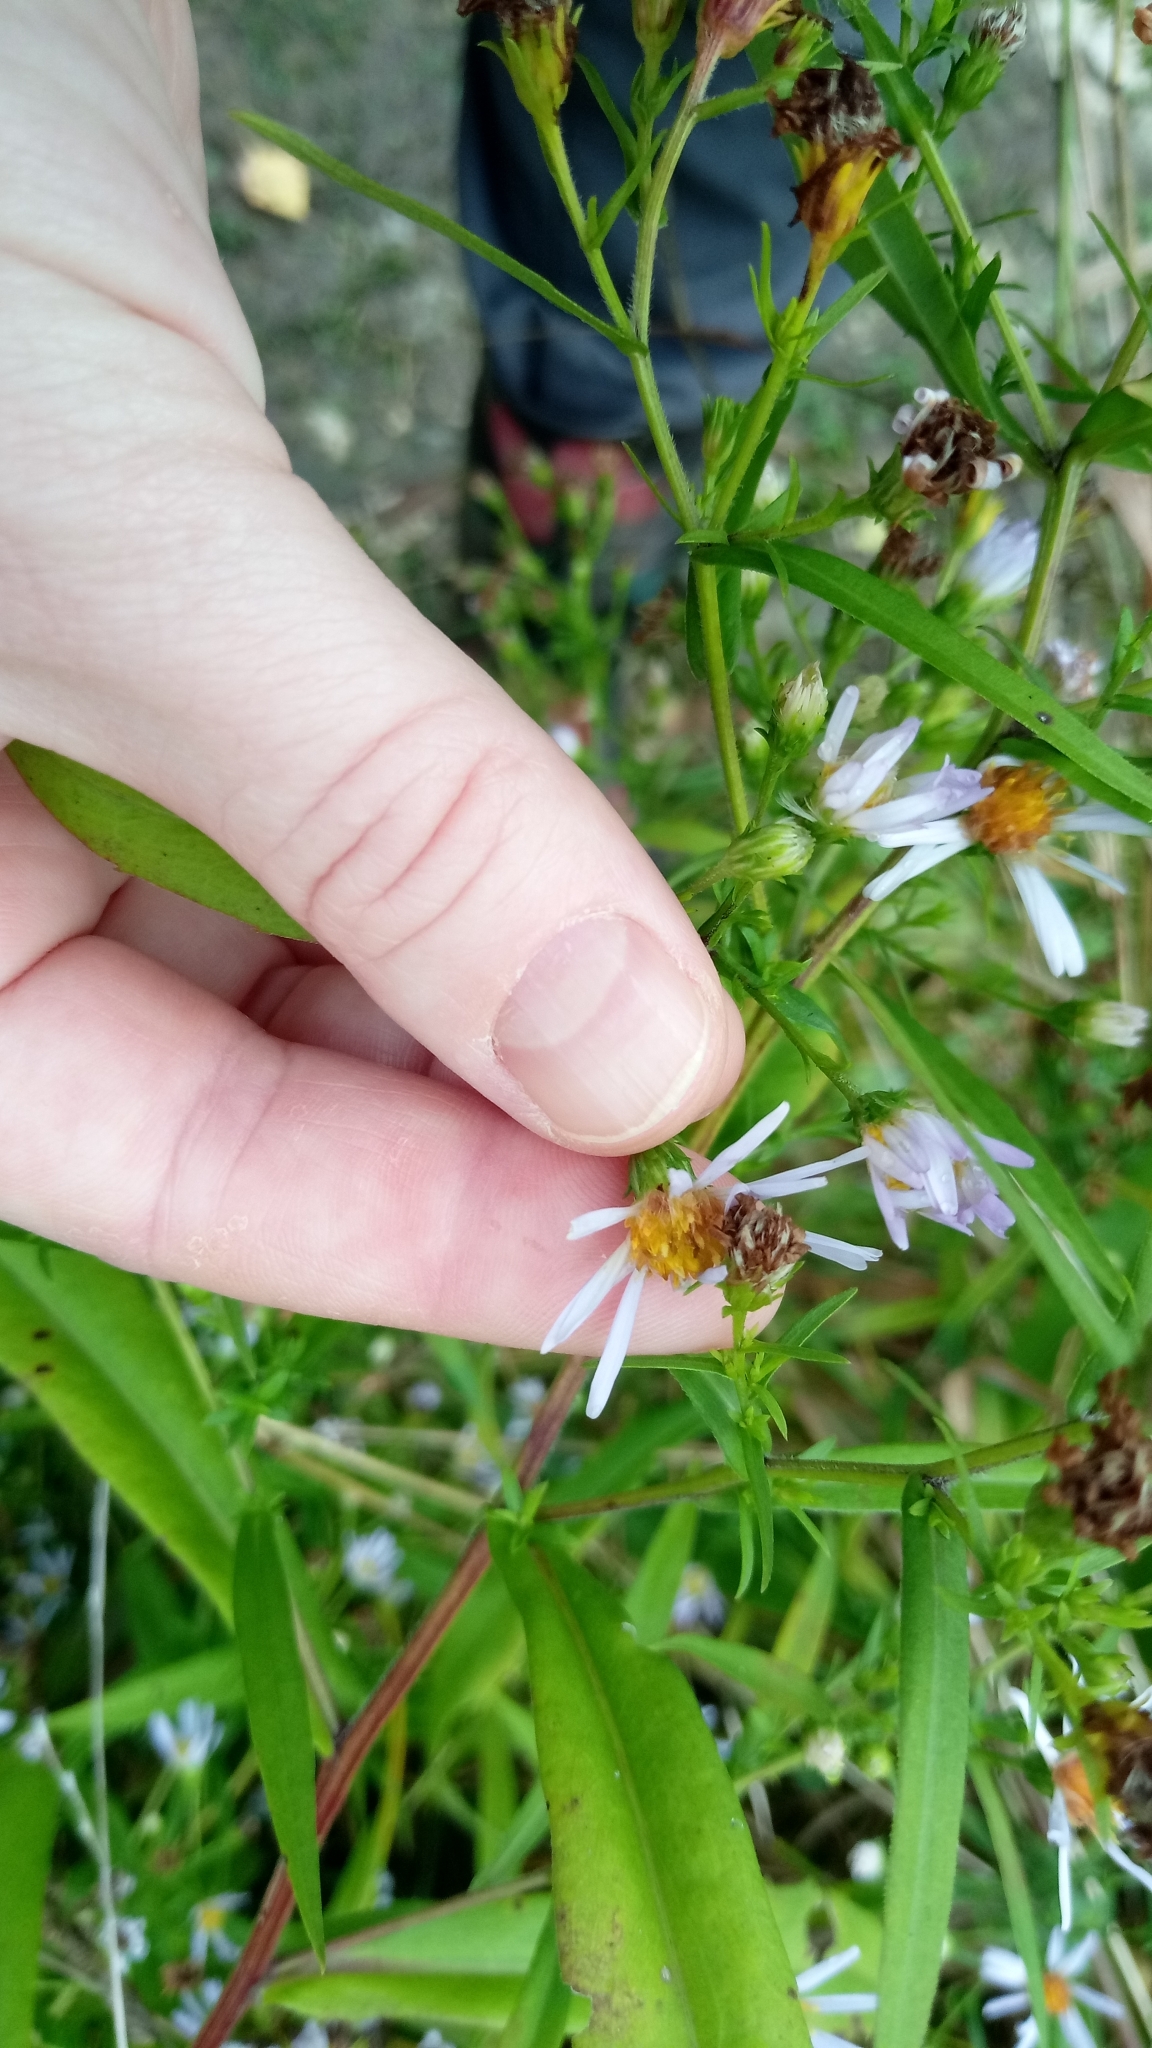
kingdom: Plantae
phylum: Tracheophyta
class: Magnoliopsida
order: Asterales
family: Asteraceae
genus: Symphyotrichum
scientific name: Symphyotrichum salignum
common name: Common michaelmas daisy
